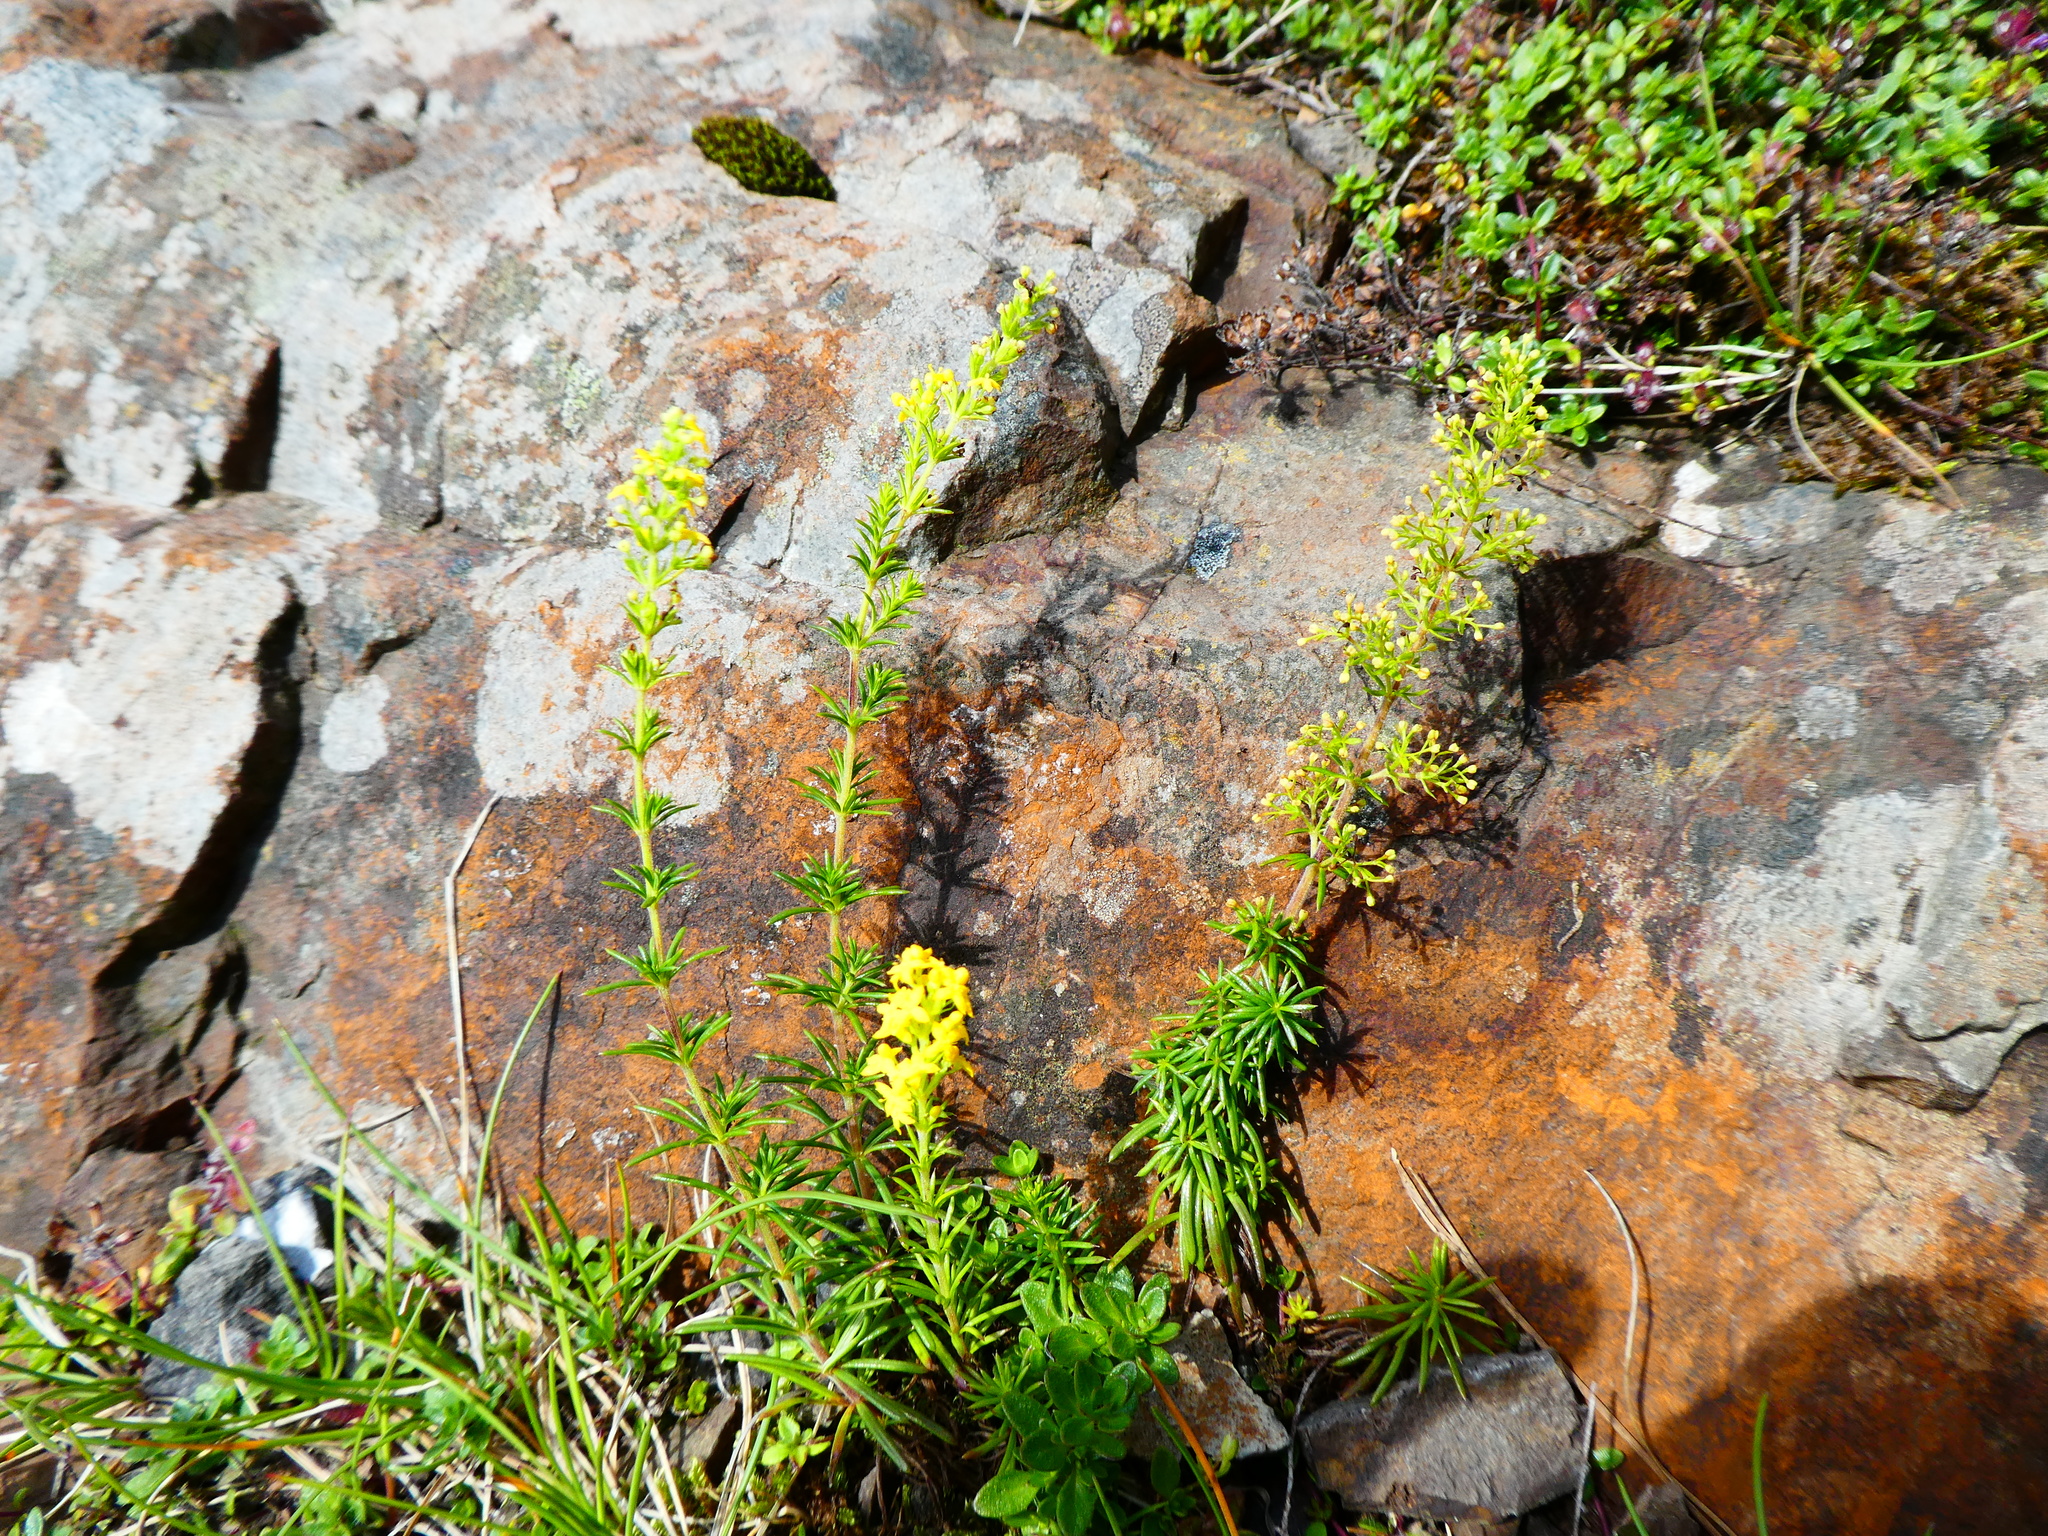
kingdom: Plantae
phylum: Tracheophyta
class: Magnoliopsida
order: Gentianales
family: Rubiaceae
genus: Galium
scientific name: Galium verum
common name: Lady's bedstraw
